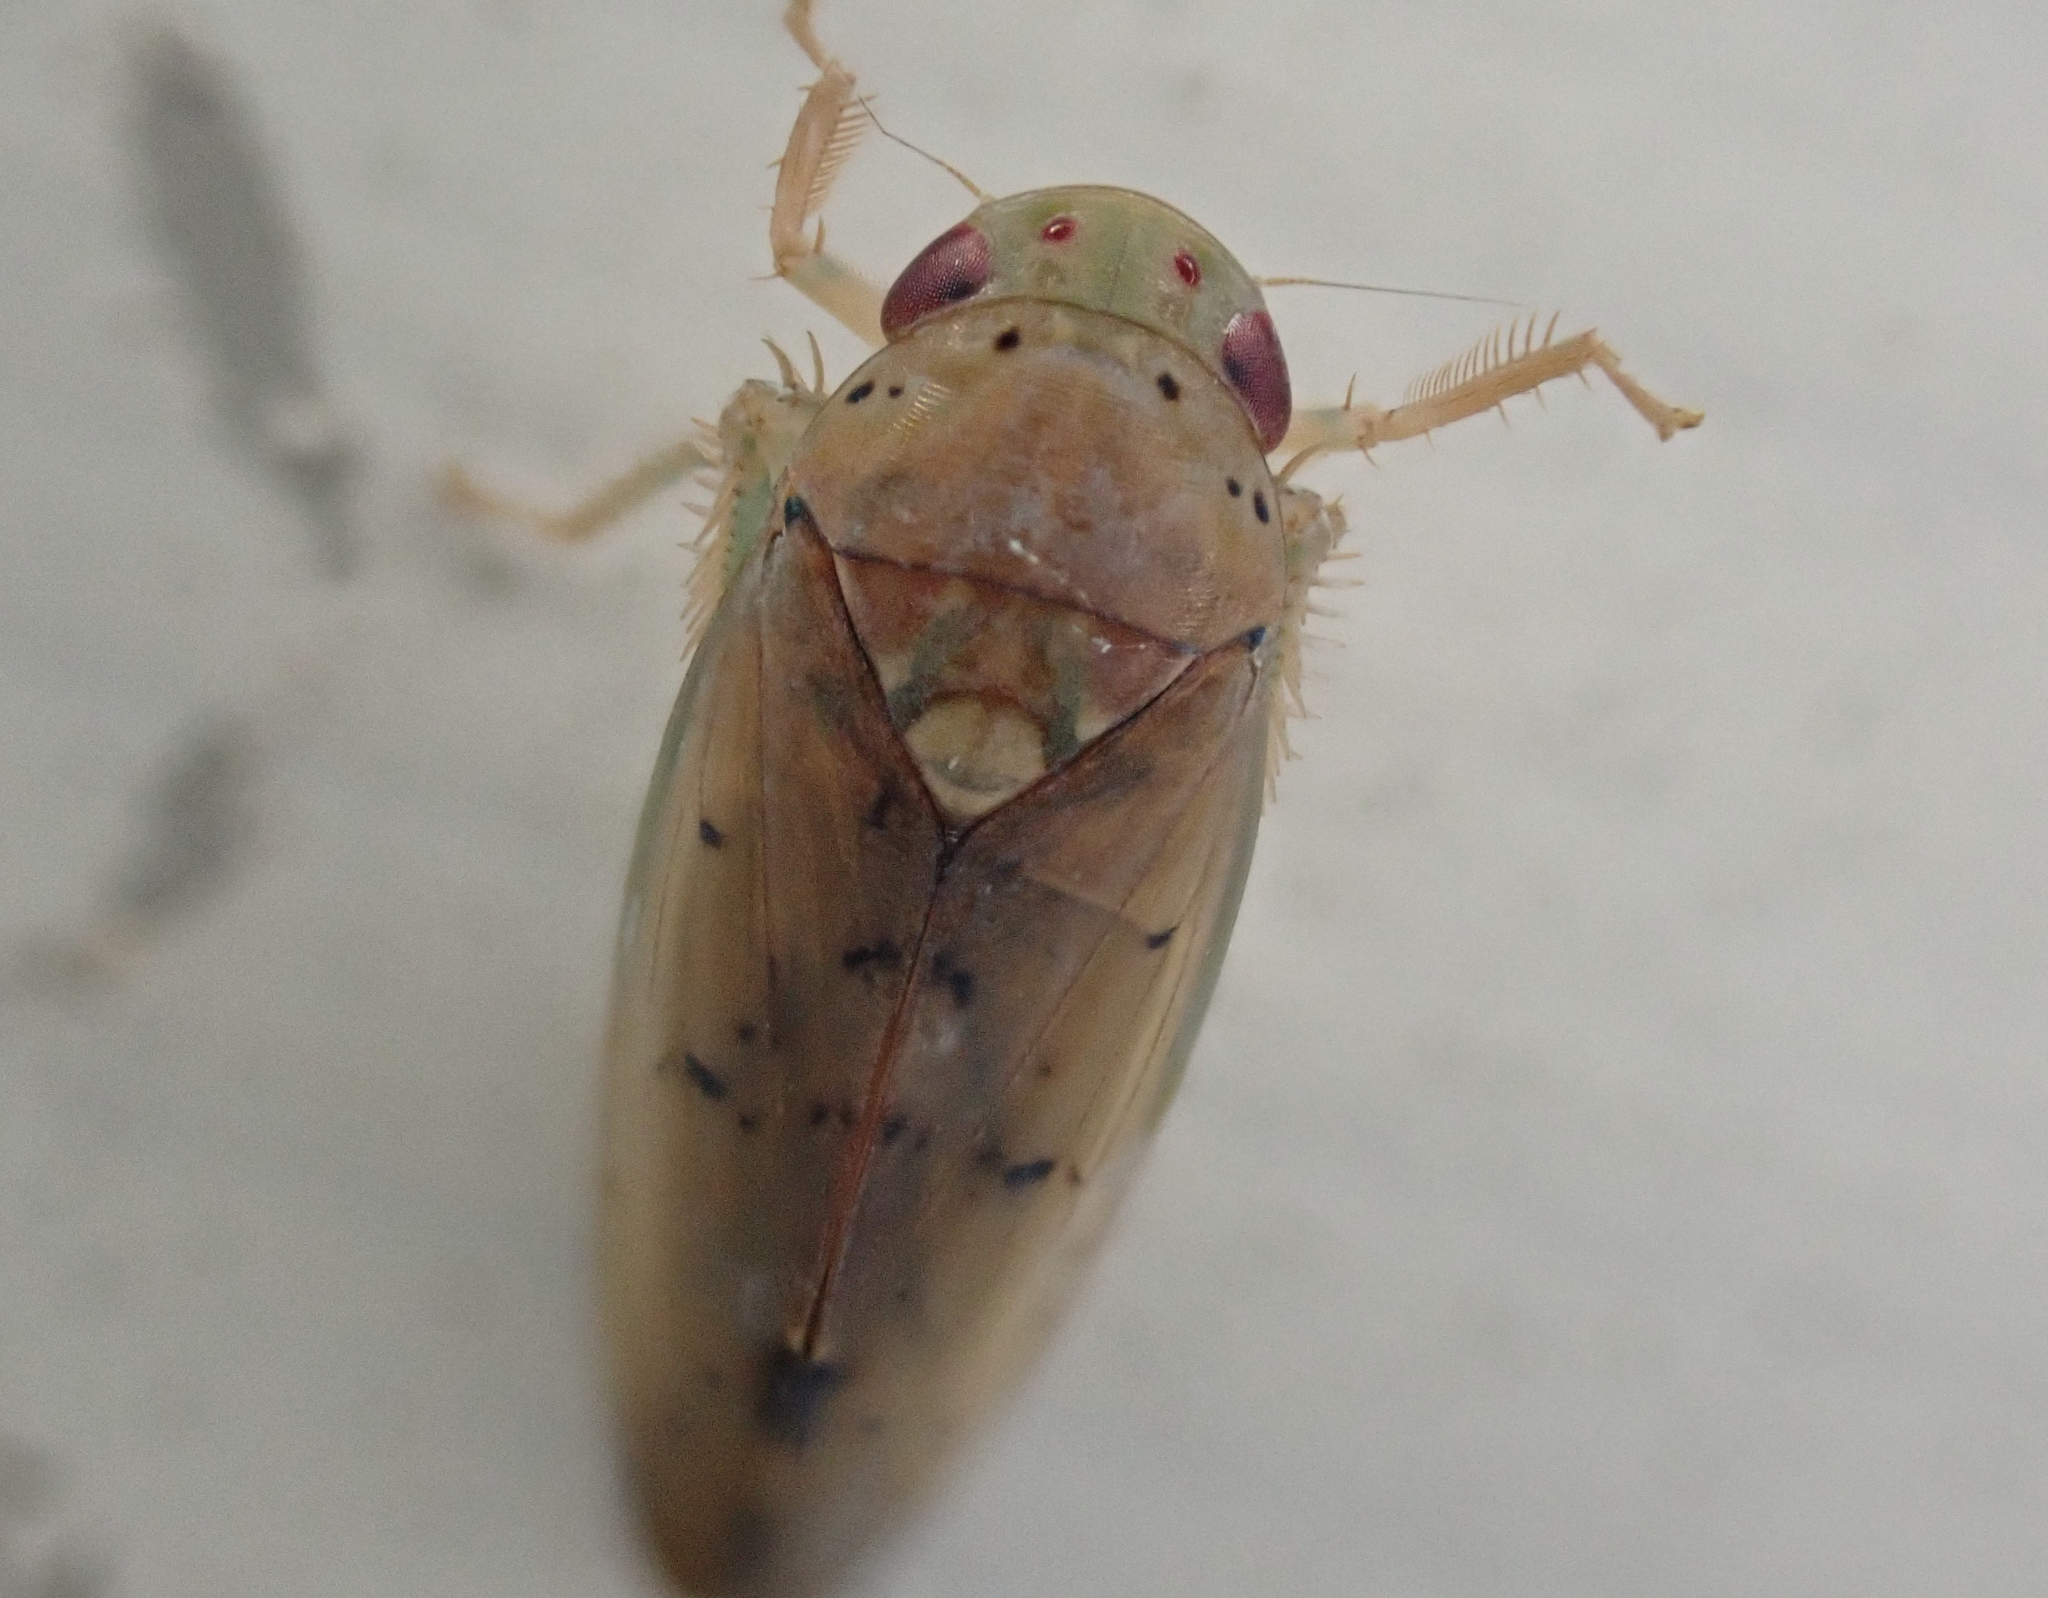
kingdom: Animalia
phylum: Arthropoda
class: Insecta
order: Hemiptera
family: Cicadellidae
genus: Ponana
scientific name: Ponana quadralaba
